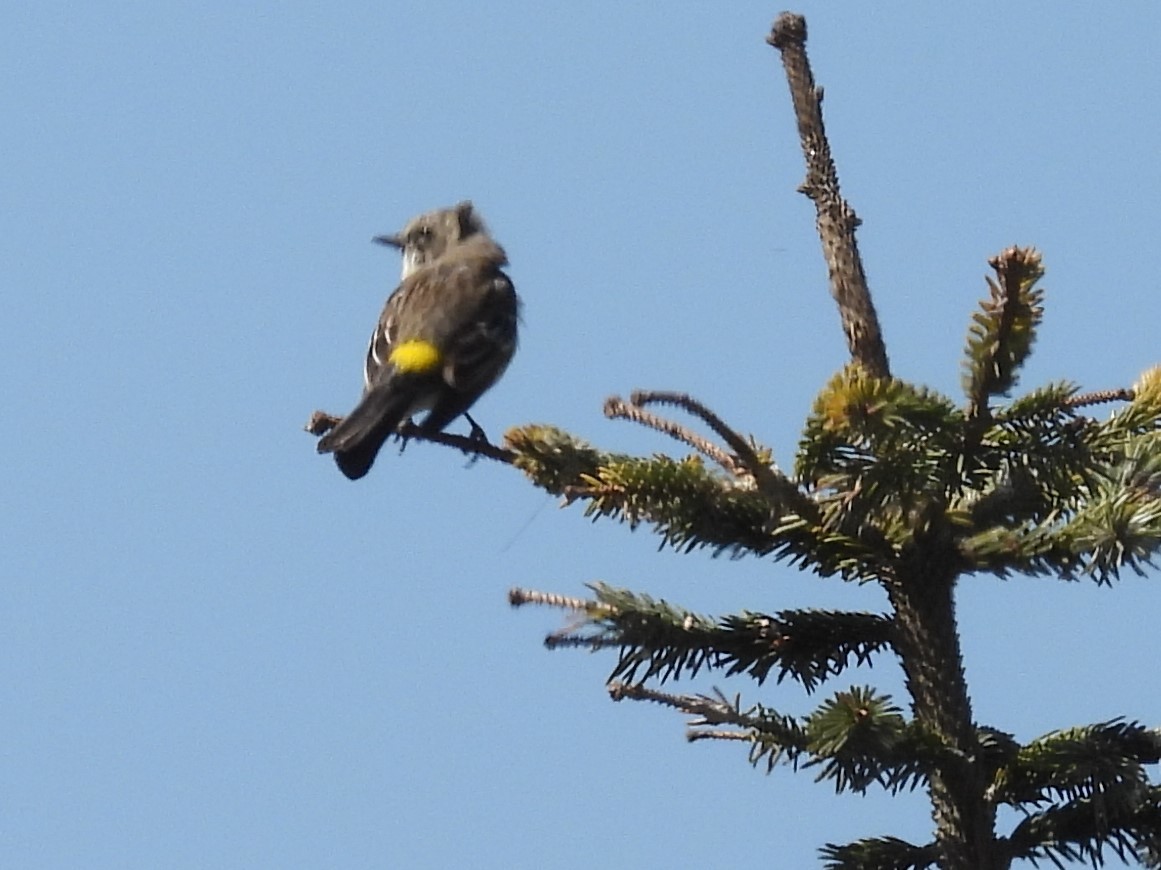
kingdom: Animalia
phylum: Chordata
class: Aves
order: Passeriformes
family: Parulidae
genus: Setophaga
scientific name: Setophaga coronata
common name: Myrtle warbler
